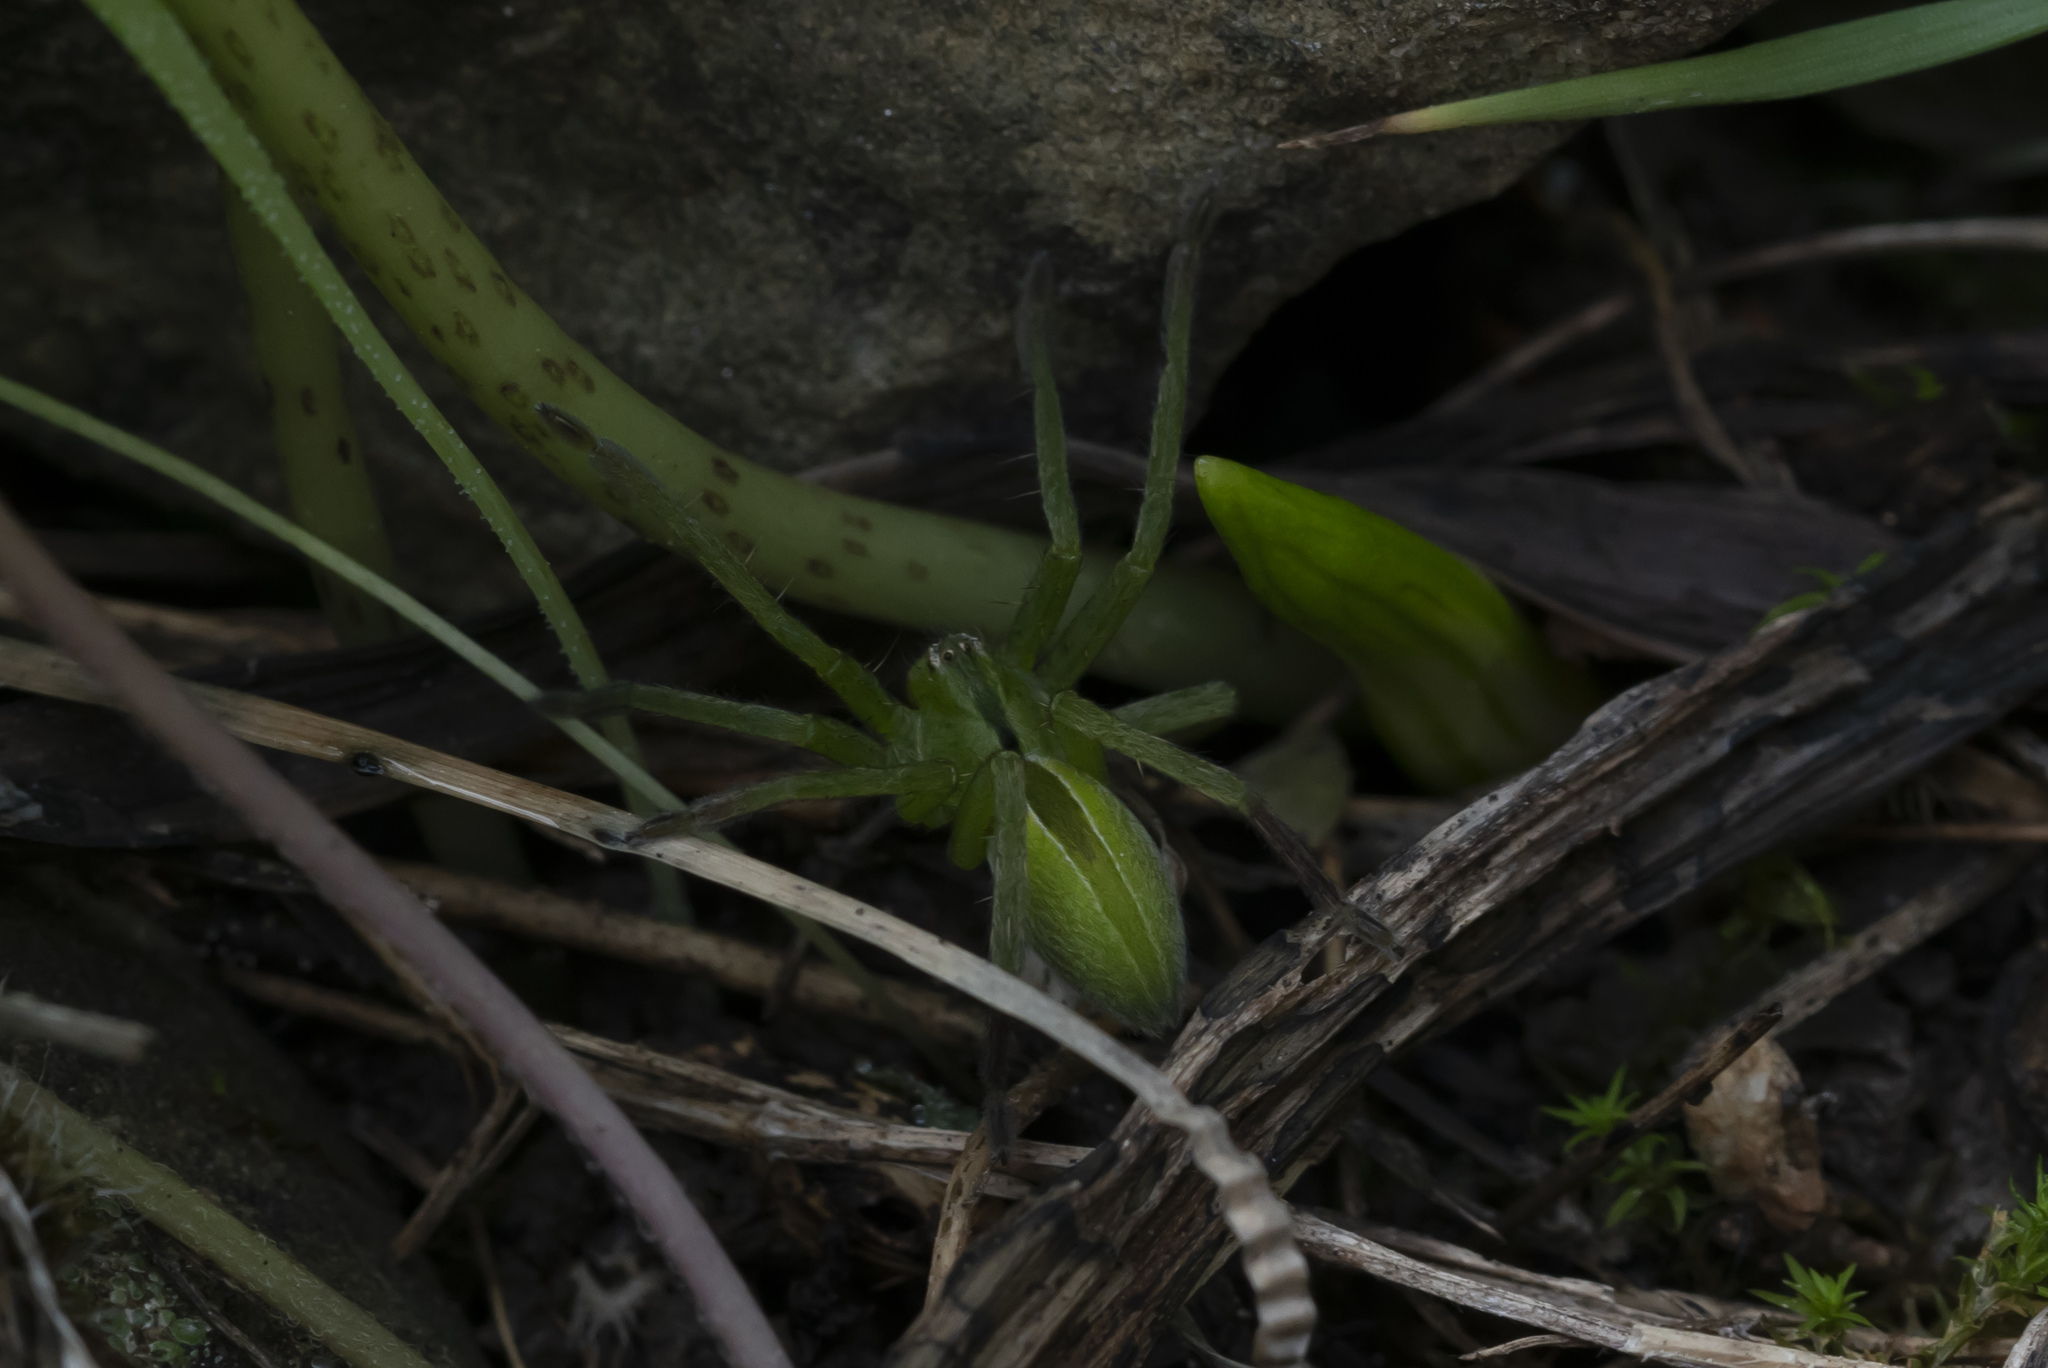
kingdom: Animalia
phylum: Arthropoda
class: Arachnida
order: Araneae
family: Sparassidae
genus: Micrommata
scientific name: Micrommata ligurina
